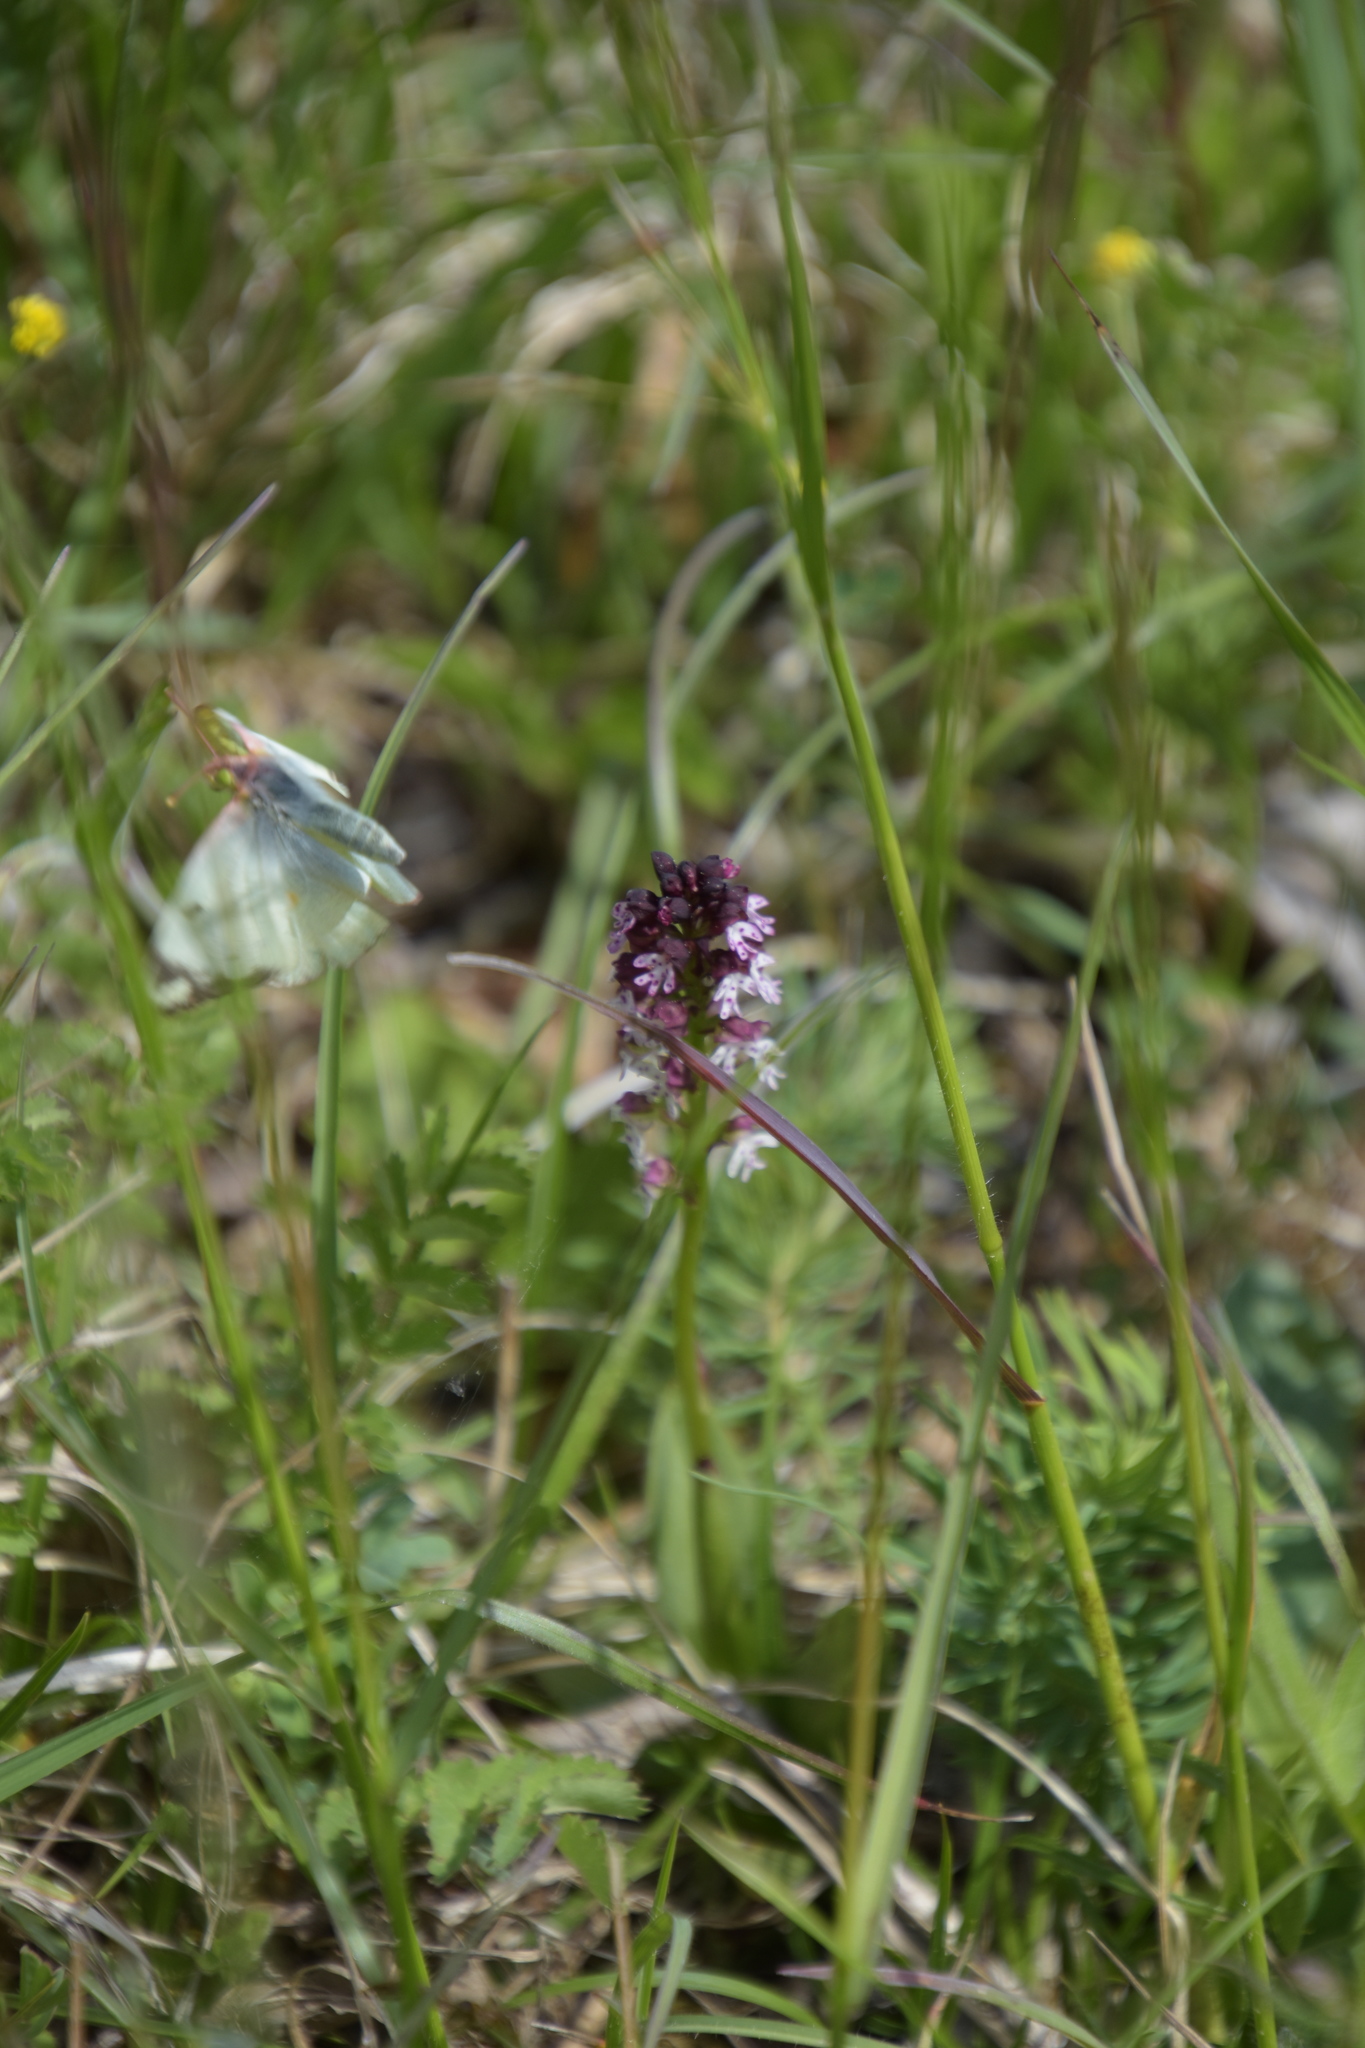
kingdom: Plantae
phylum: Tracheophyta
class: Liliopsida
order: Asparagales
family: Orchidaceae
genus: Neotinea
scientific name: Neotinea ustulata
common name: Burnt orchid
